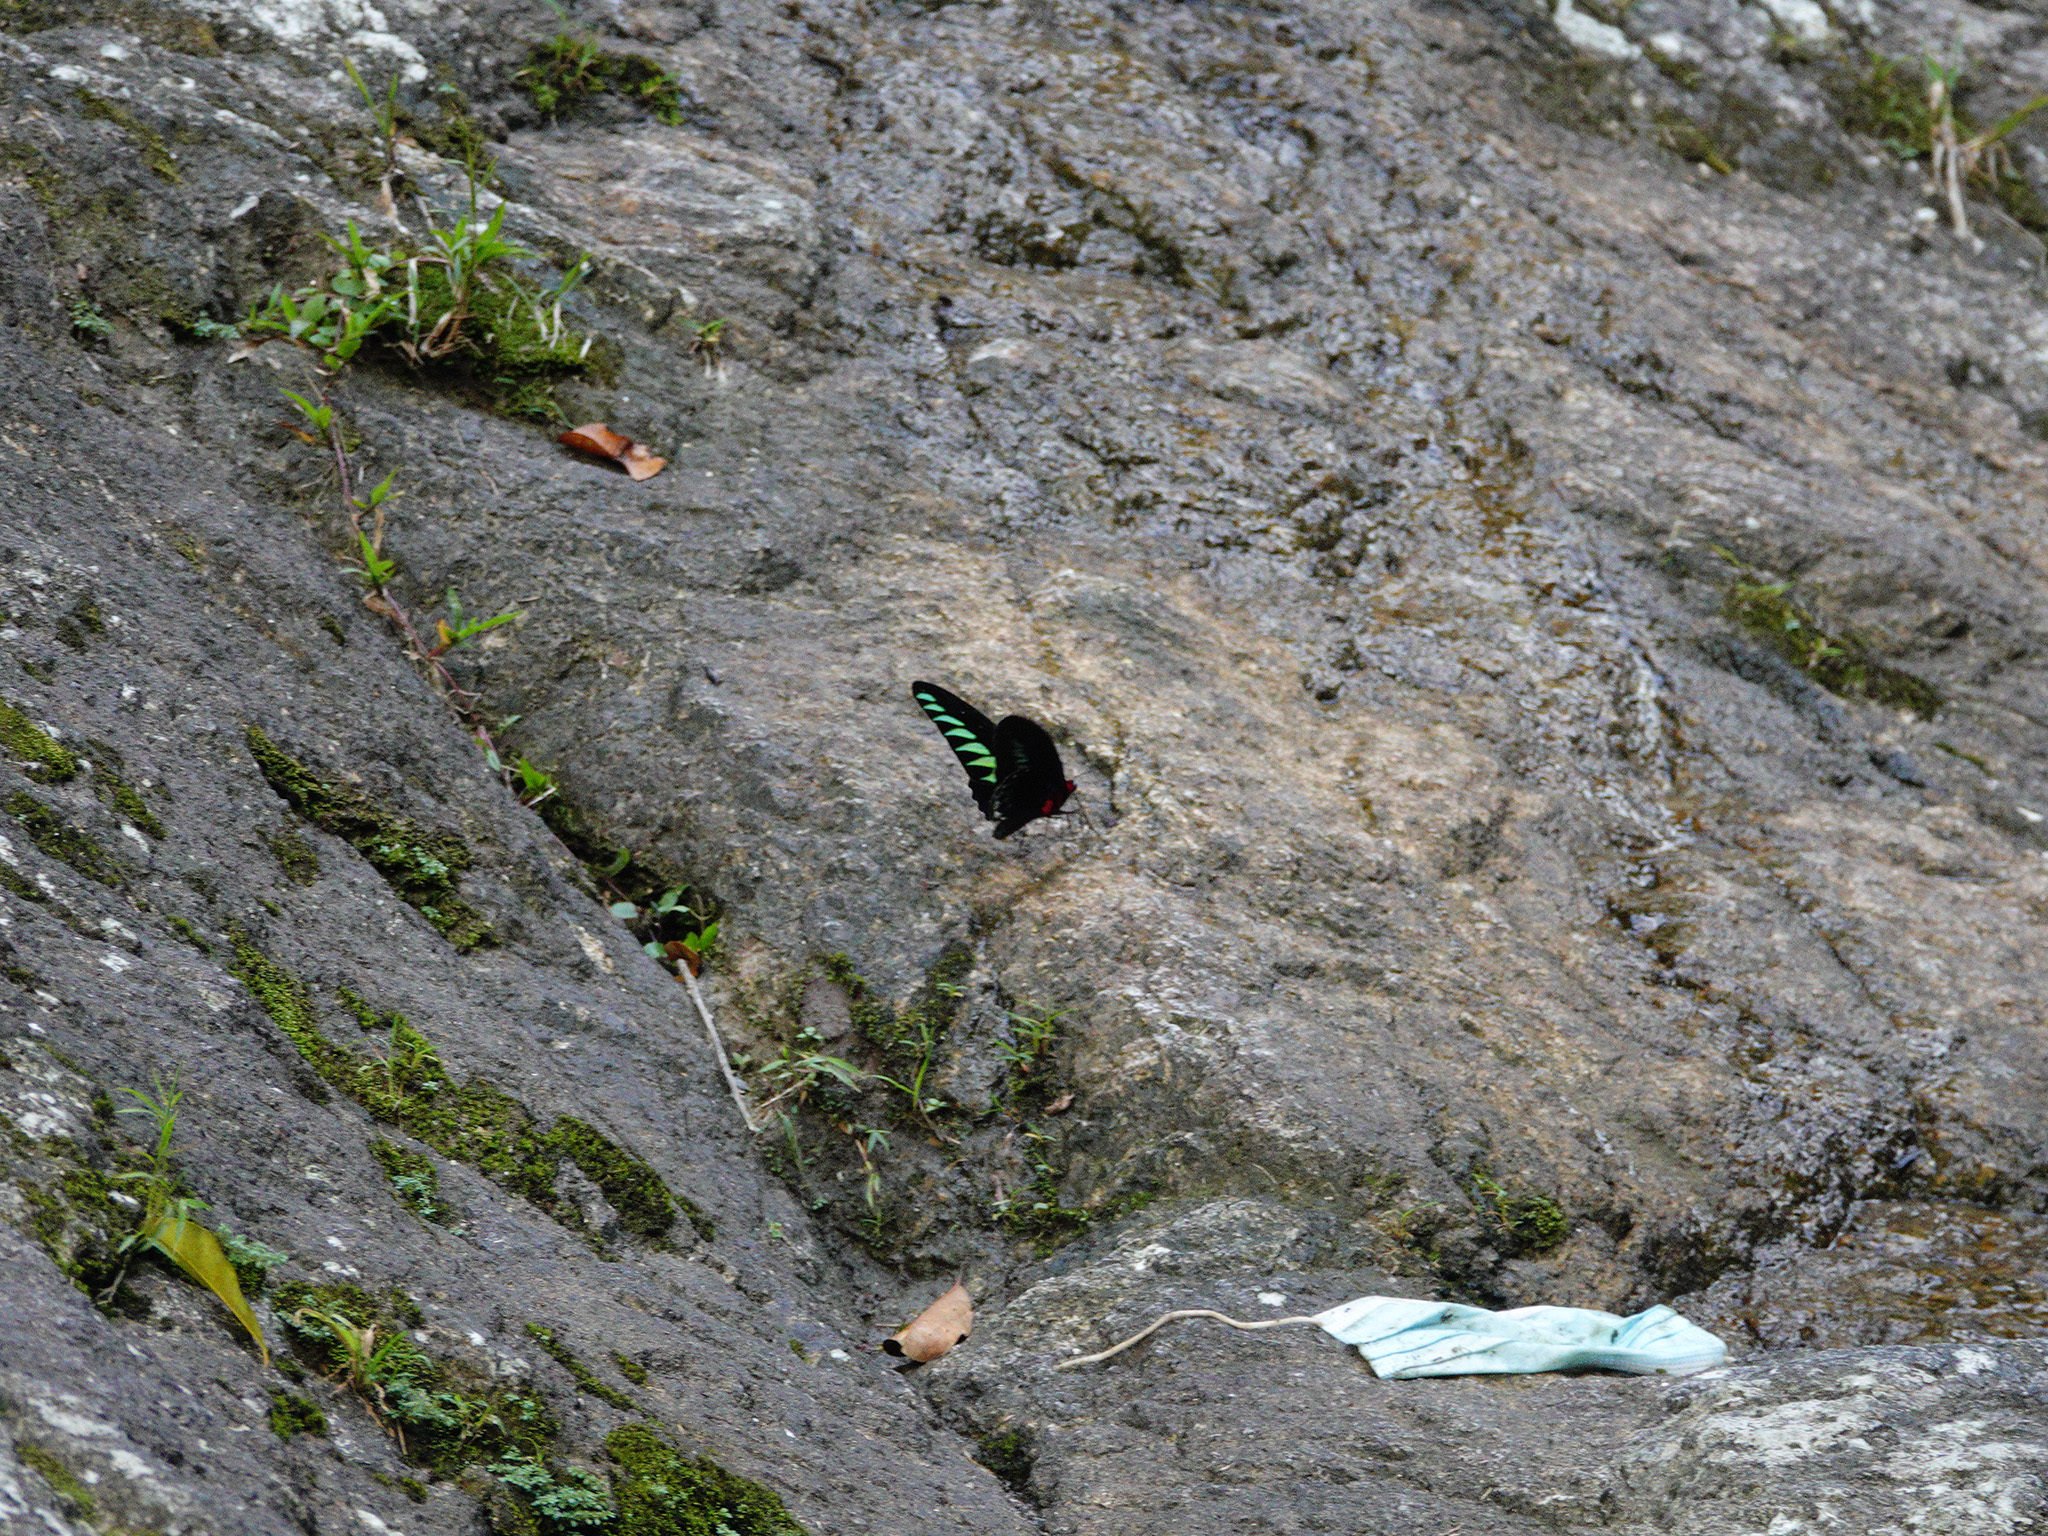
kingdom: Animalia
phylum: Arthropoda
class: Insecta
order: Lepidoptera
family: Papilionidae
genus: Trogonoptera
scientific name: Trogonoptera brookiana
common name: Raja brooke's birdwing
